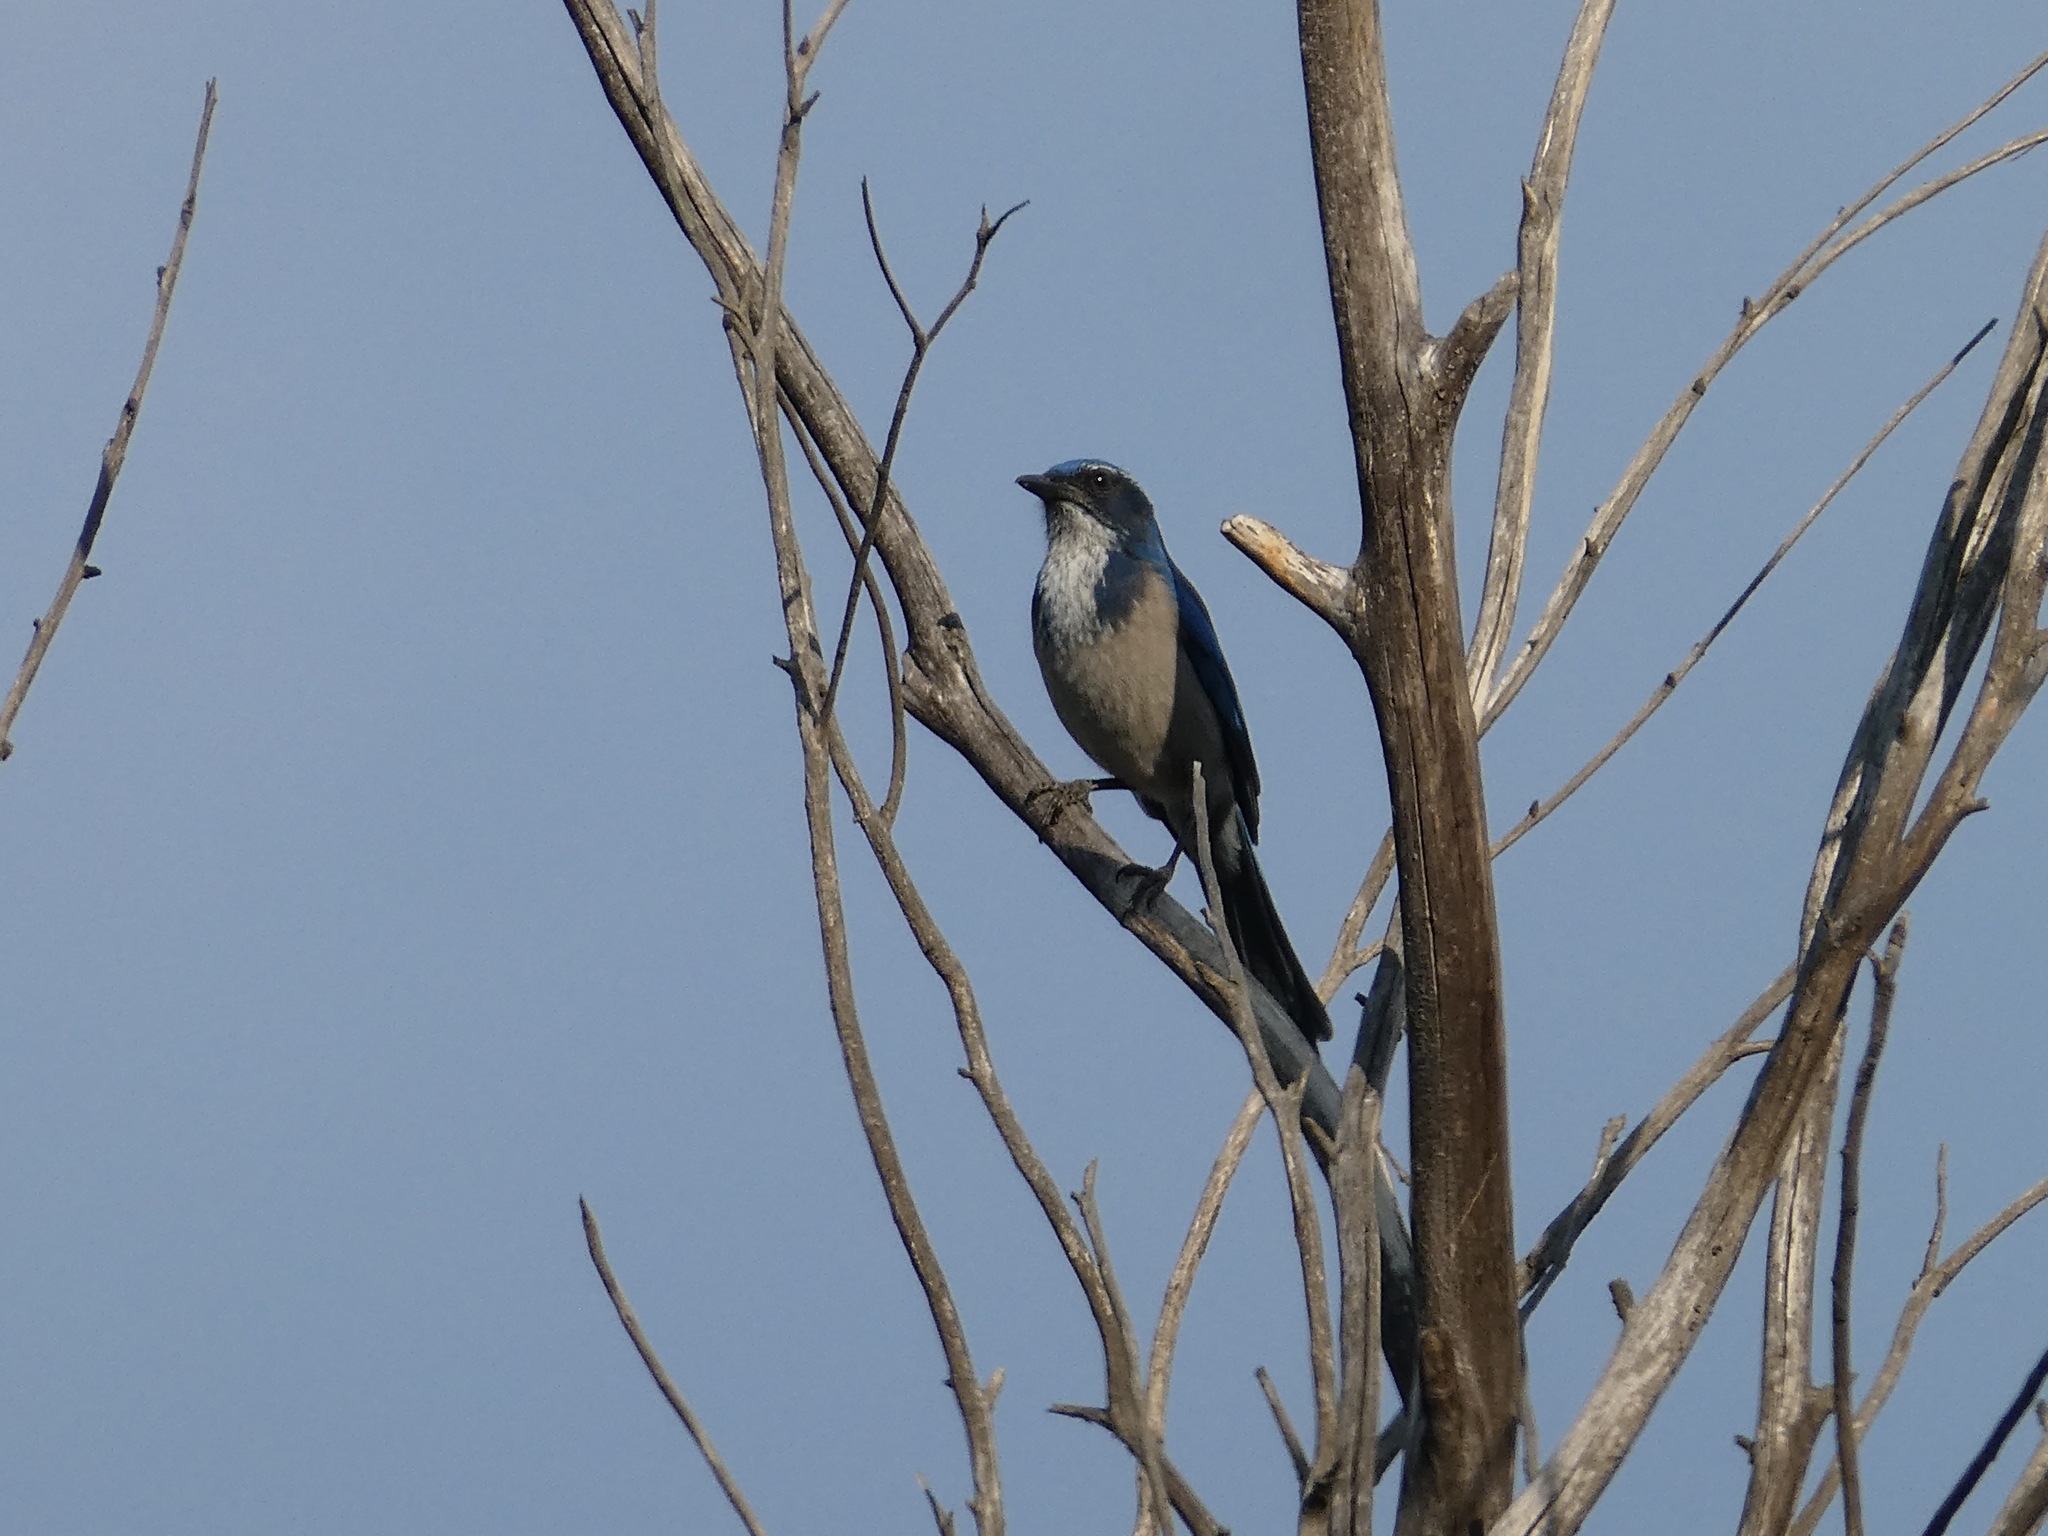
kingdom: Animalia
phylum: Chordata
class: Aves
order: Passeriformes
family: Corvidae
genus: Aphelocoma
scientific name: Aphelocoma californica
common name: California scrub-jay
